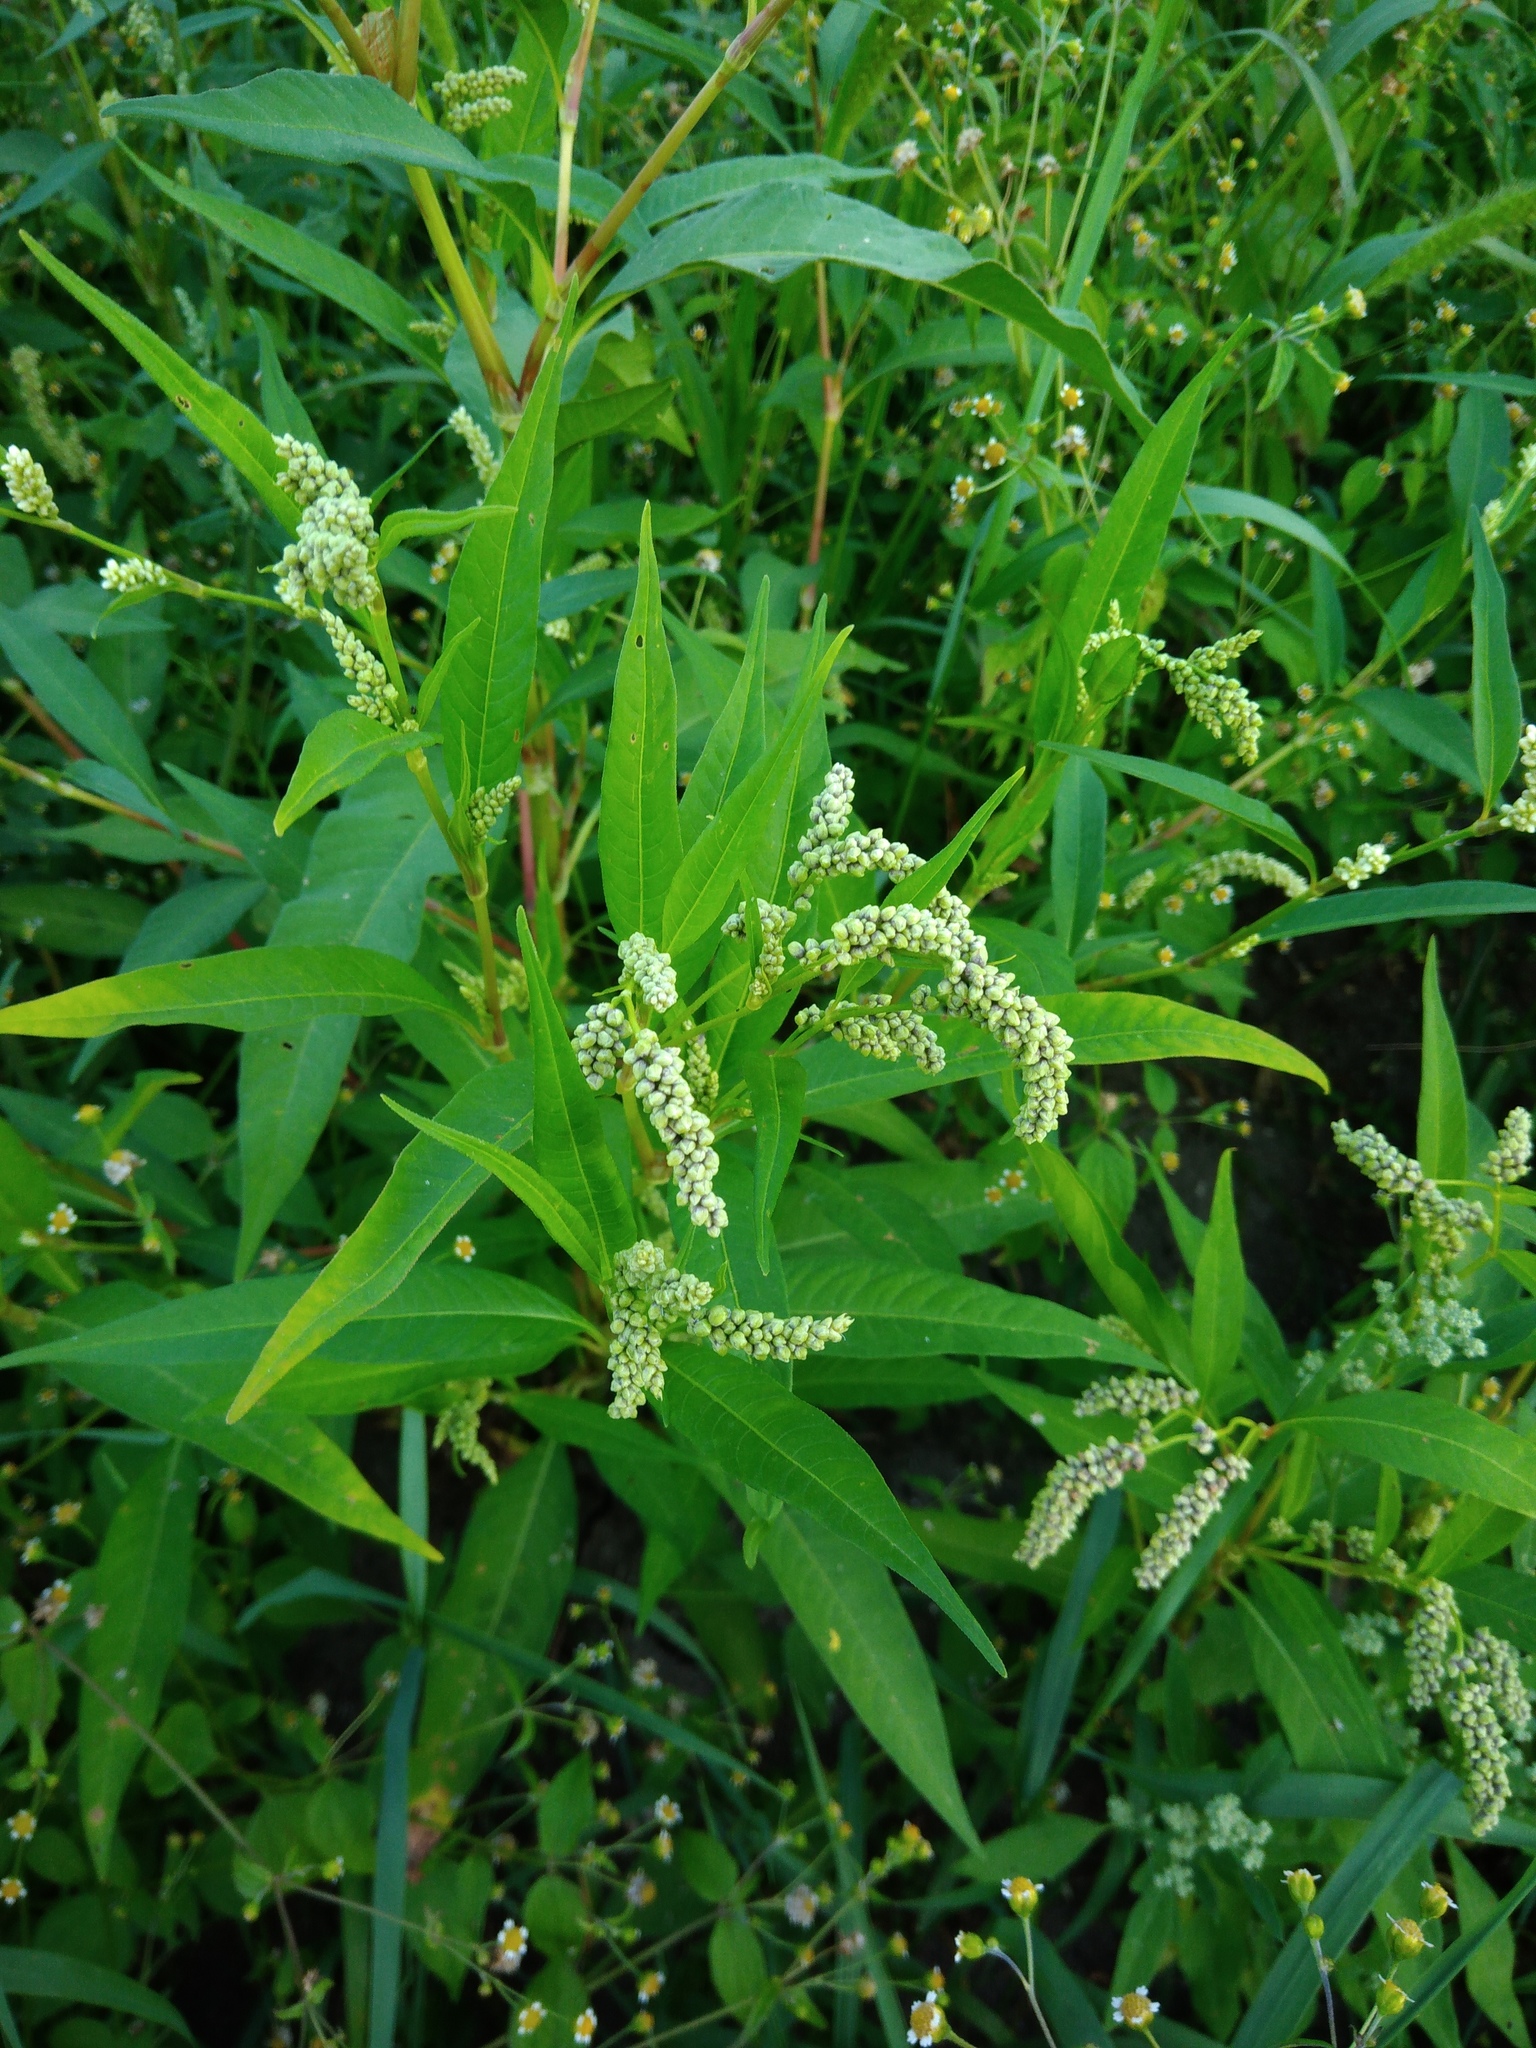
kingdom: Plantae
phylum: Tracheophyta
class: Magnoliopsida
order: Caryophyllales
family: Polygonaceae
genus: Persicaria
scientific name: Persicaria lapathifolia
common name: Curlytop knotweed
